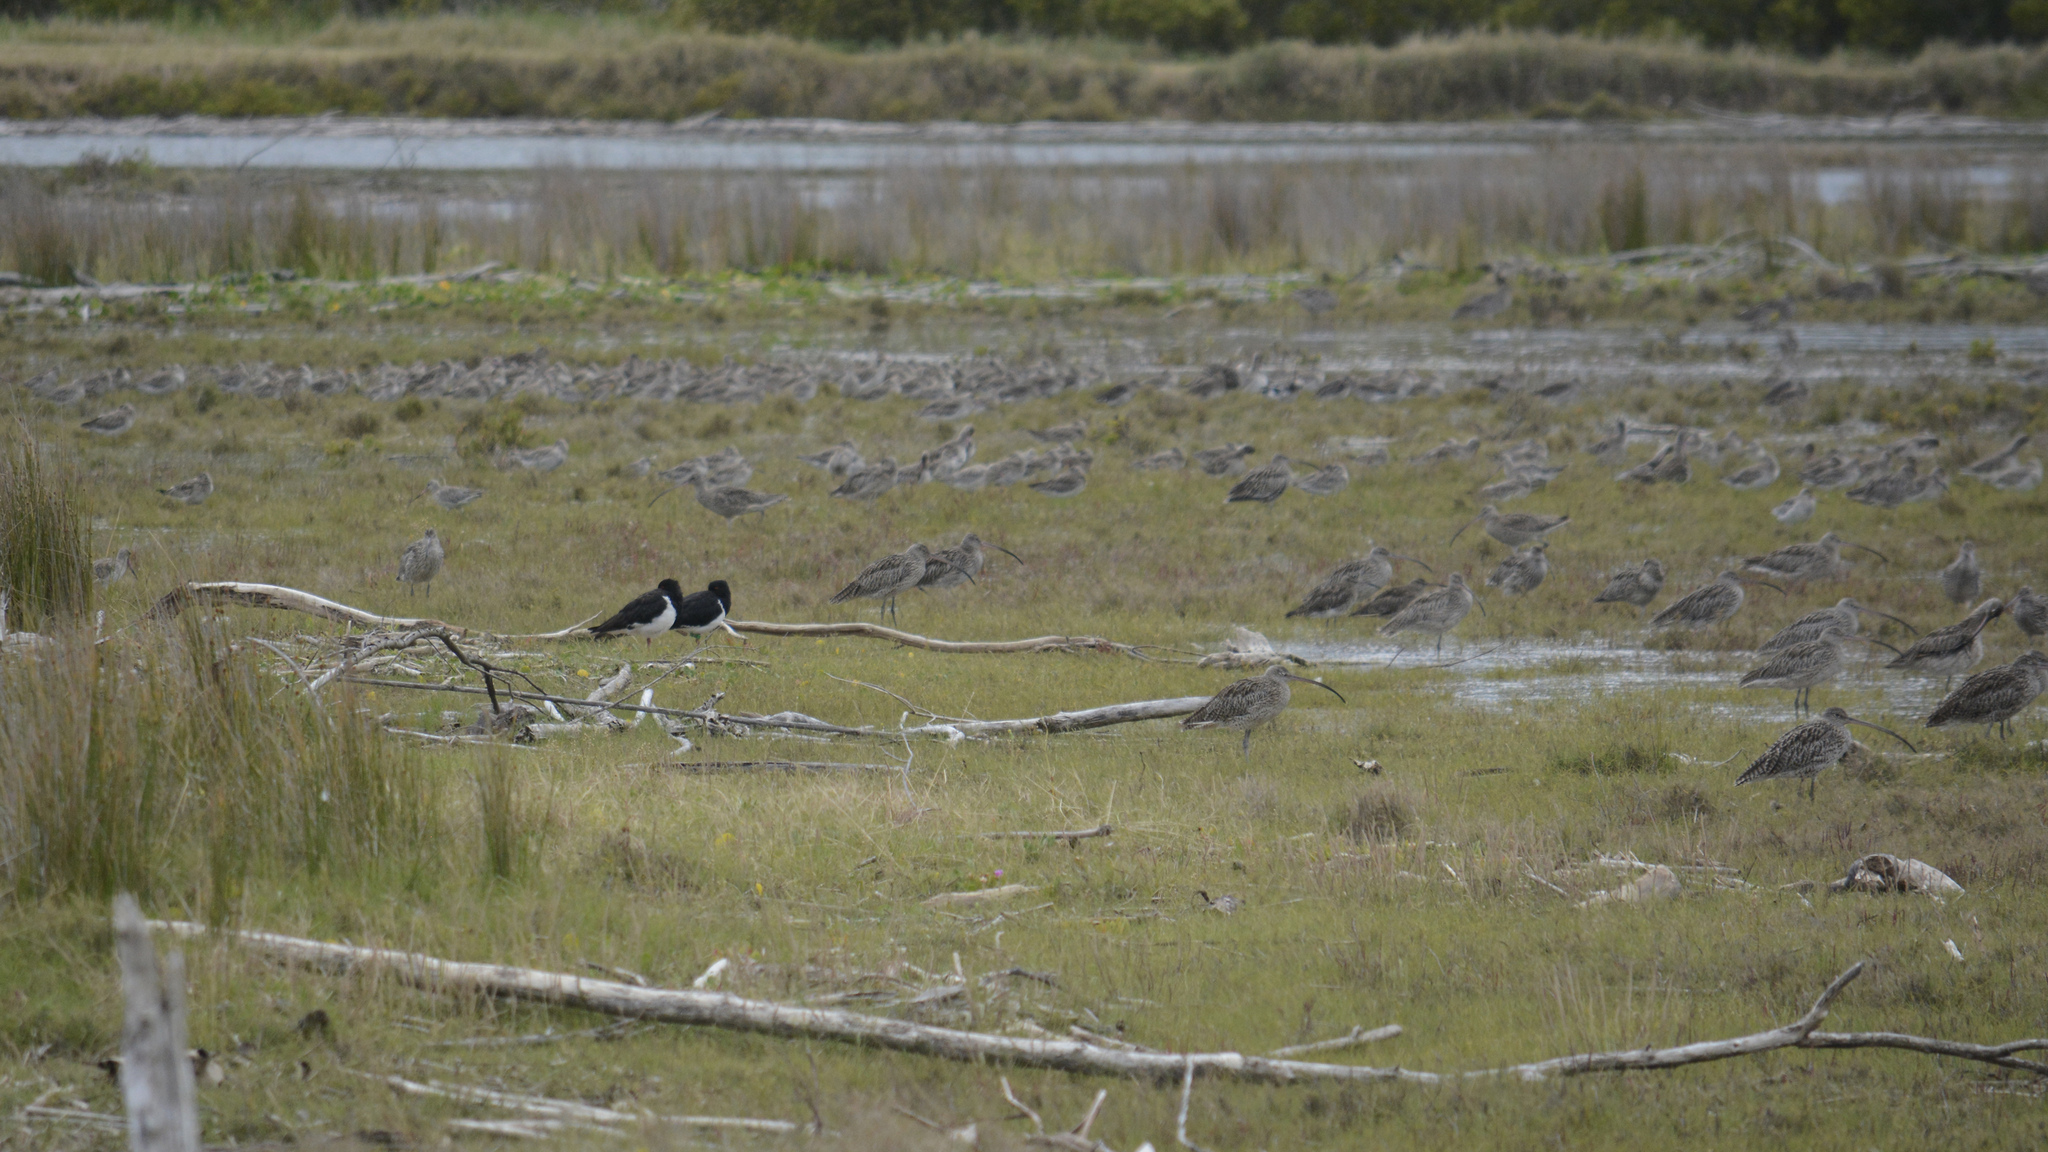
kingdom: Animalia
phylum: Chordata
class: Aves
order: Charadriiformes
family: Haematopodidae
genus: Haematopus
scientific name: Haematopus longirostris
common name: Pied oystercatcher
